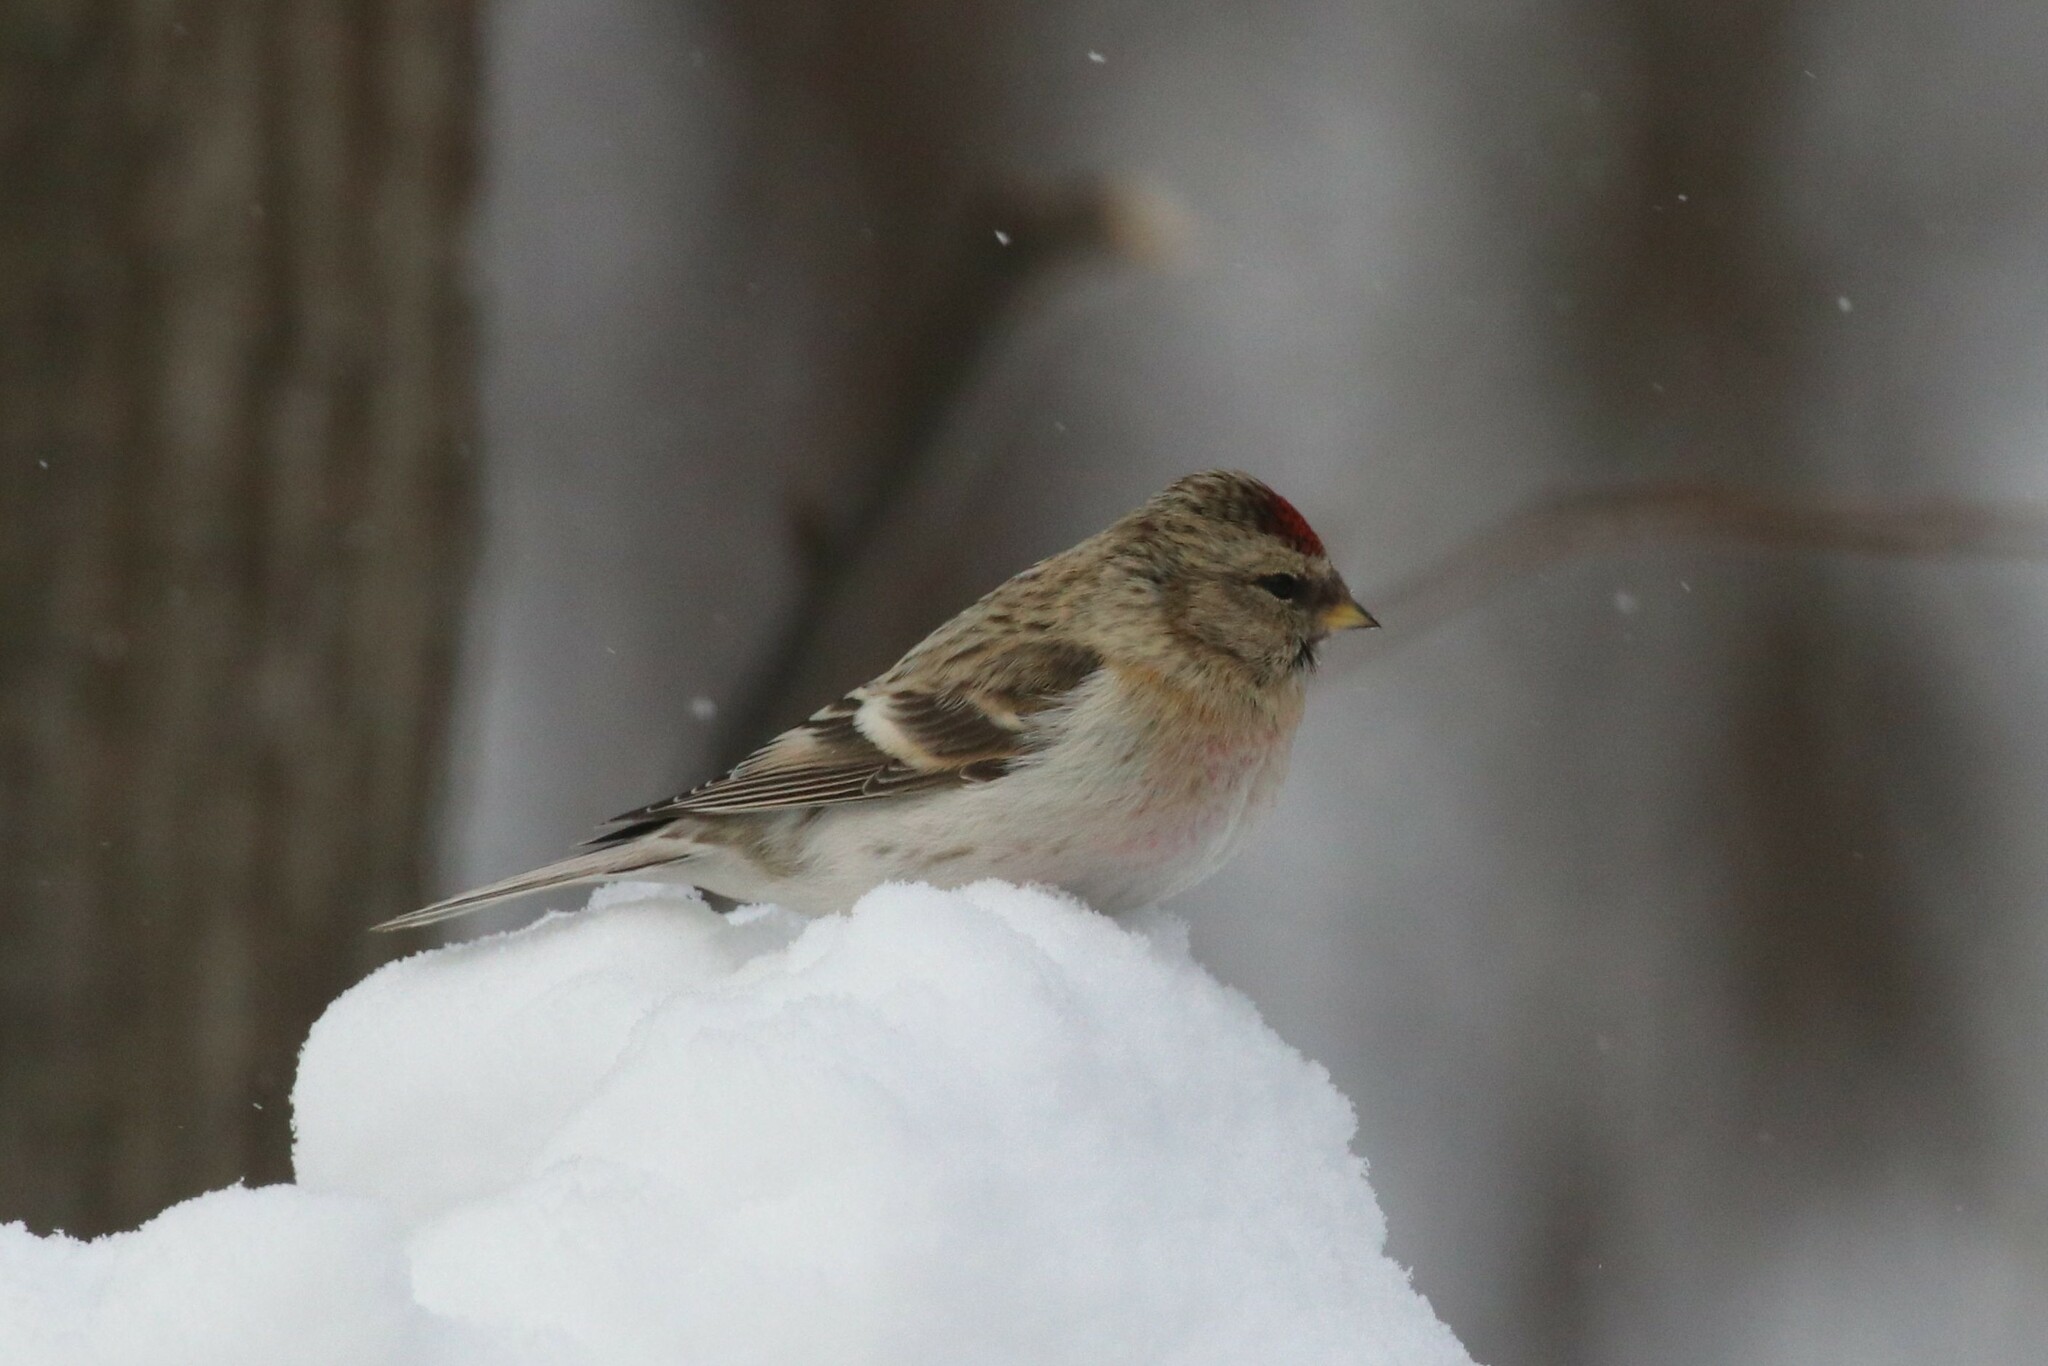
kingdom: Animalia
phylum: Chordata
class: Aves
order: Passeriformes
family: Fringillidae
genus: Acanthis
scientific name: Acanthis hornemanni
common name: Arctic redpoll
